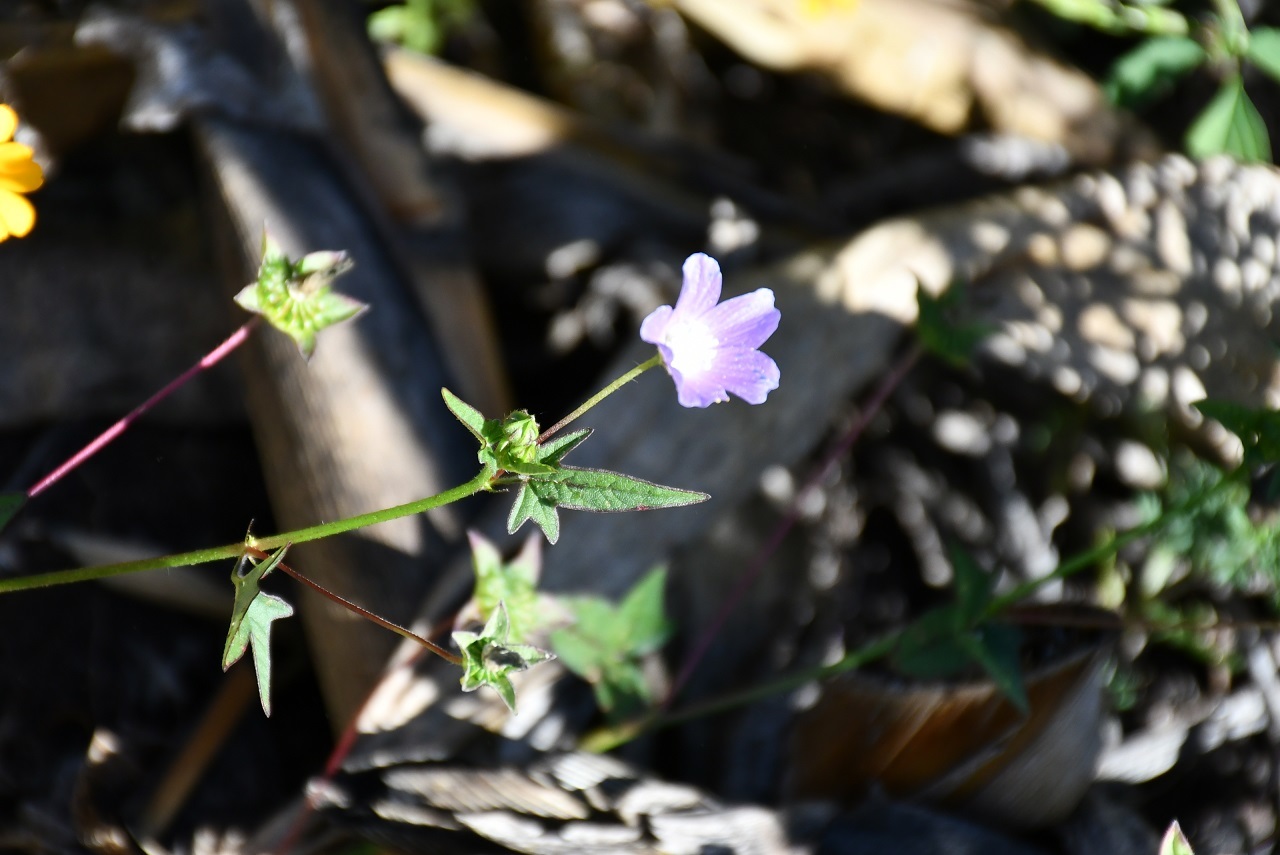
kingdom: Plantae
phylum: Tracheophyta
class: Magnoliopsida
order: Malvales
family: Malvaceae
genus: Anoda
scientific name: Anoda acerifolia
